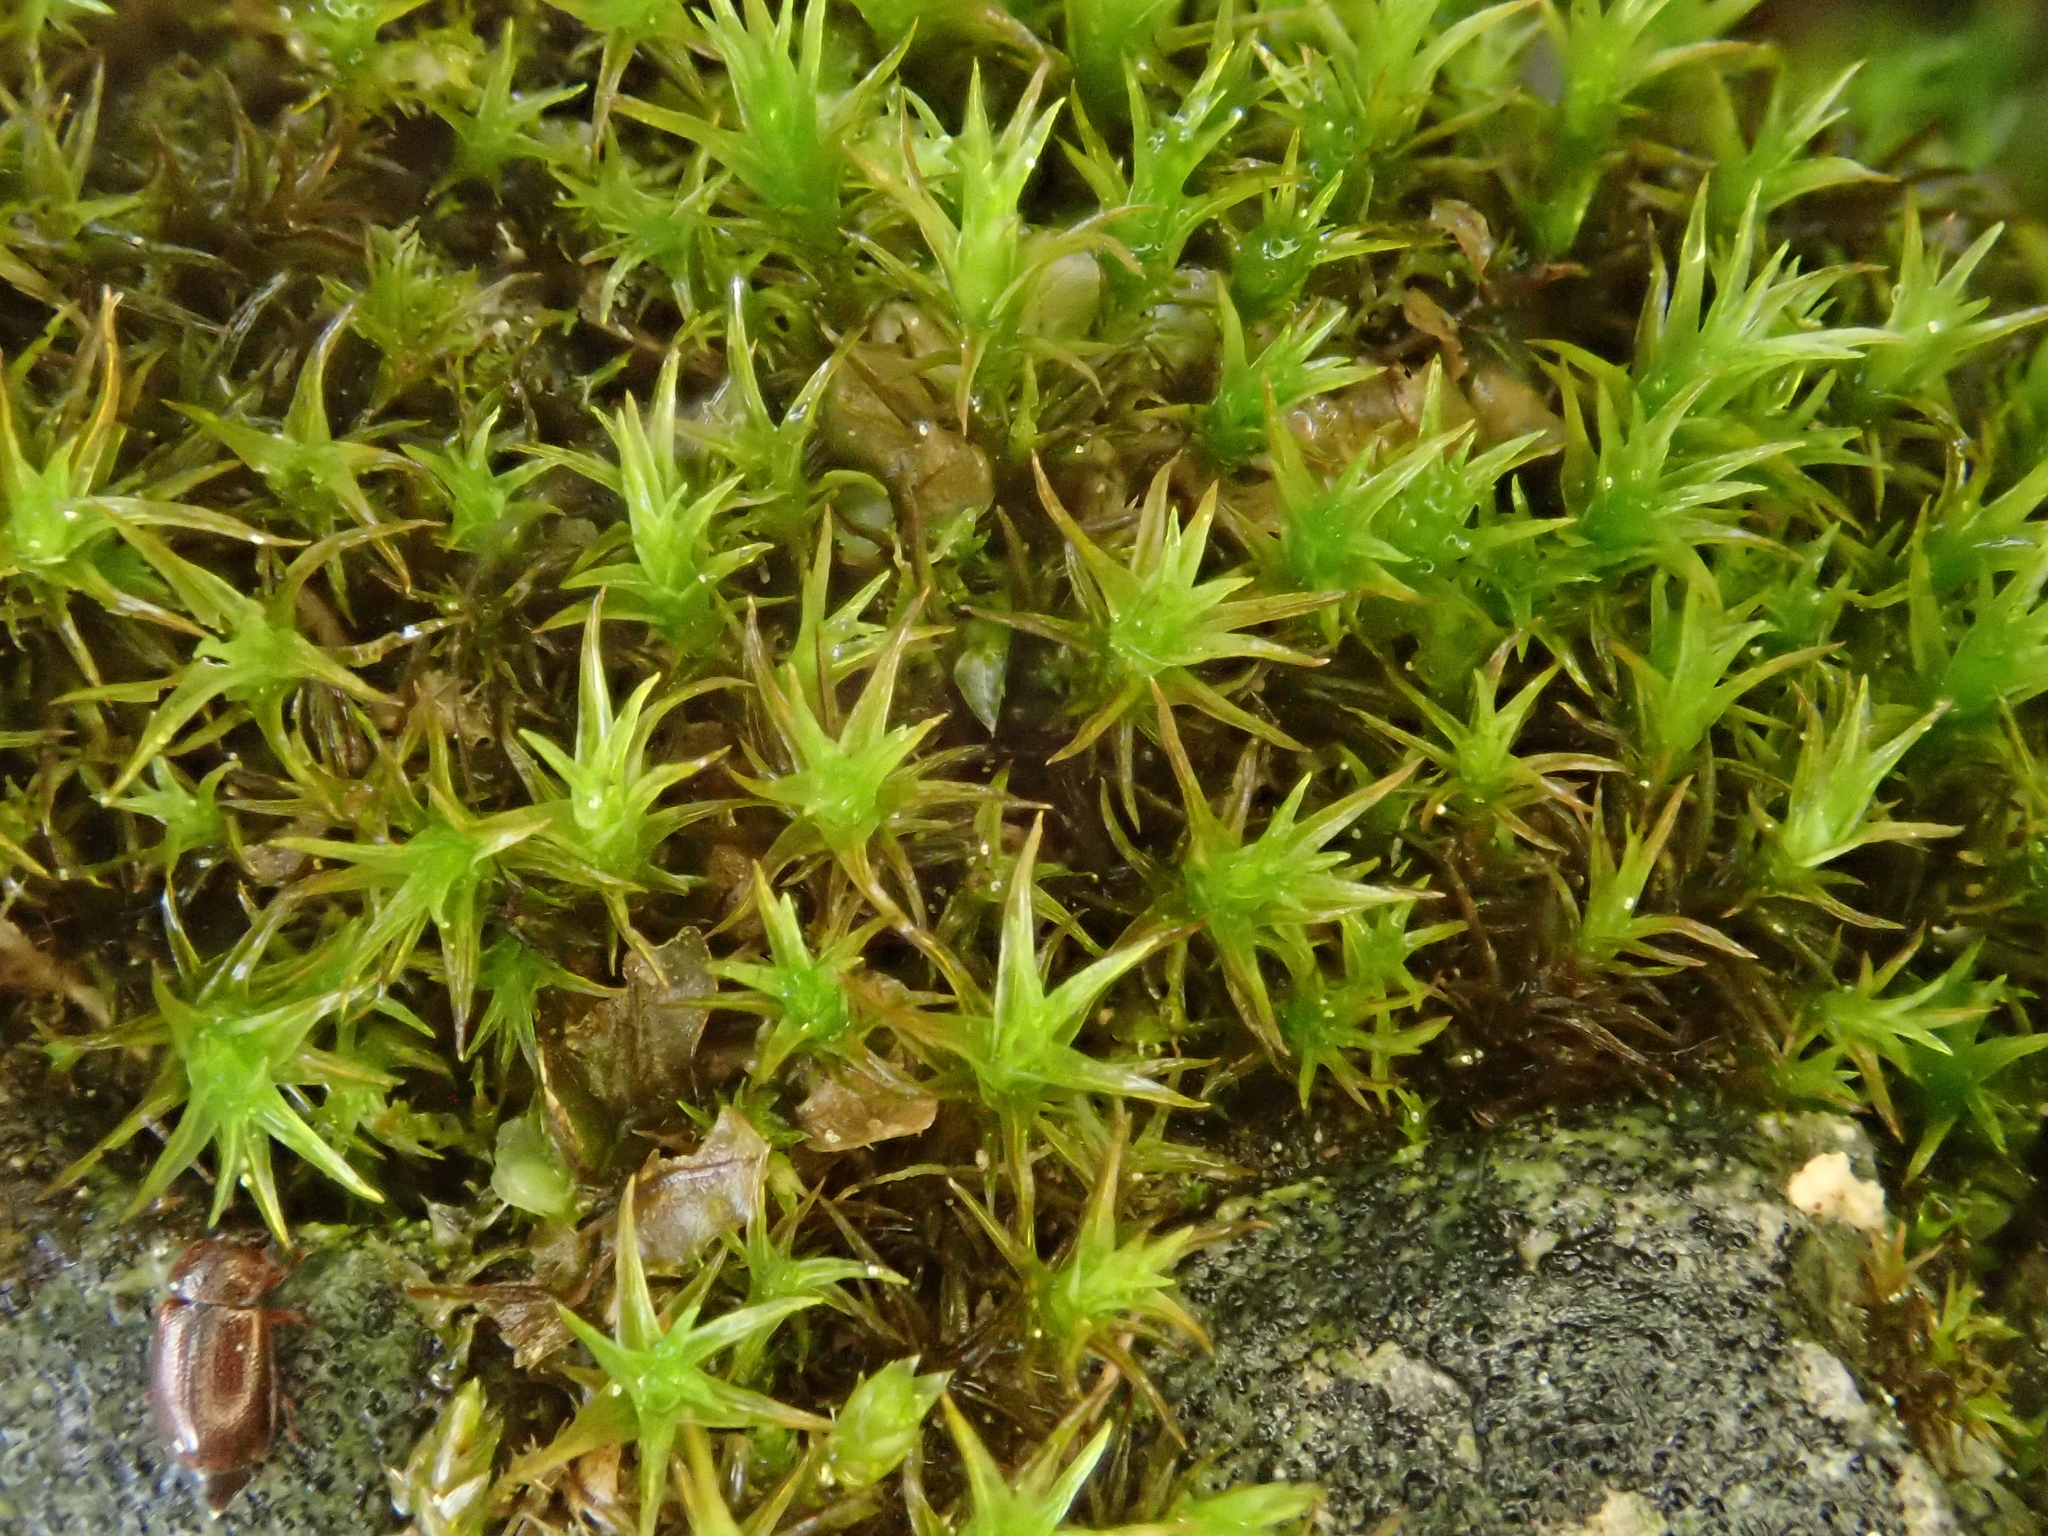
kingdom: Plantae
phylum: Bryophyta
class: Bryopsida
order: Pottiales
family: Pottiaceae
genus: Didymodon
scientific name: Didymodon rigidulus
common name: Rigid beard-moss
